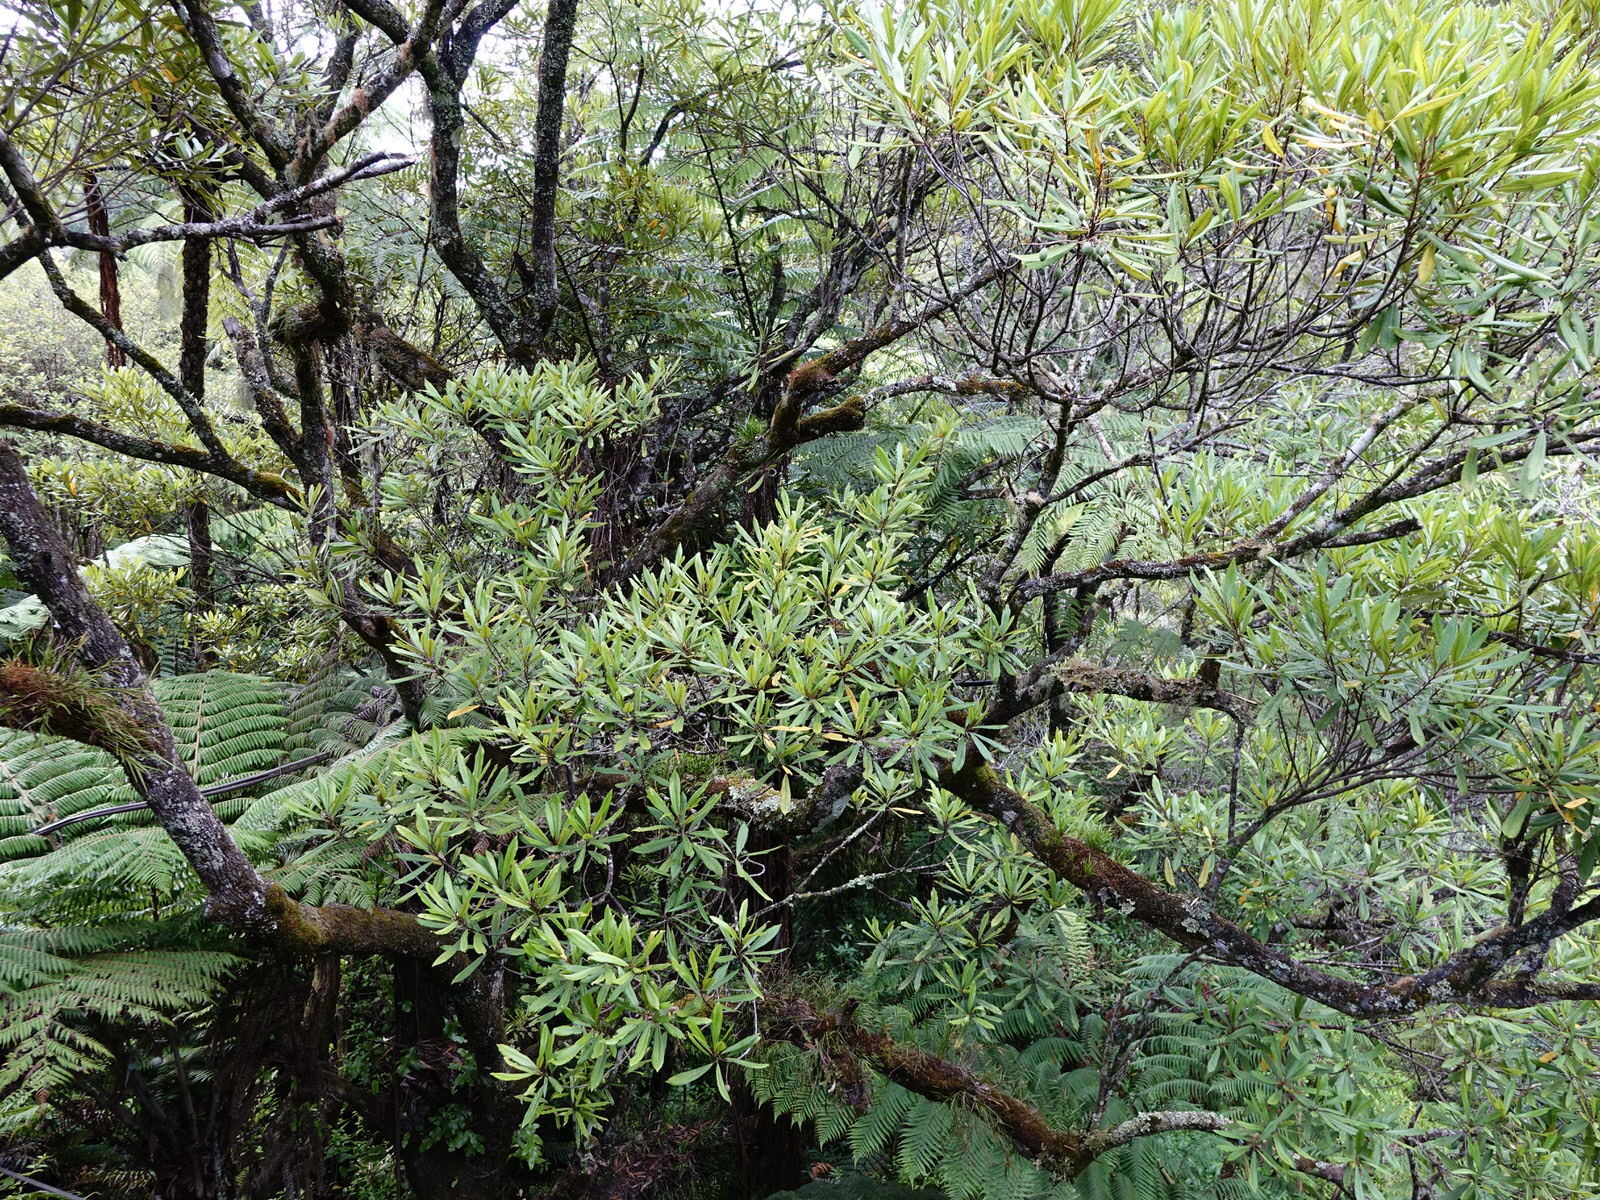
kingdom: Plantae
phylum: Tracheophyta
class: Magnoliopsida
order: Oxalidales
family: Elaeocarpaceae
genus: Elaeocarpus
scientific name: Elaeocarpus dentatus
